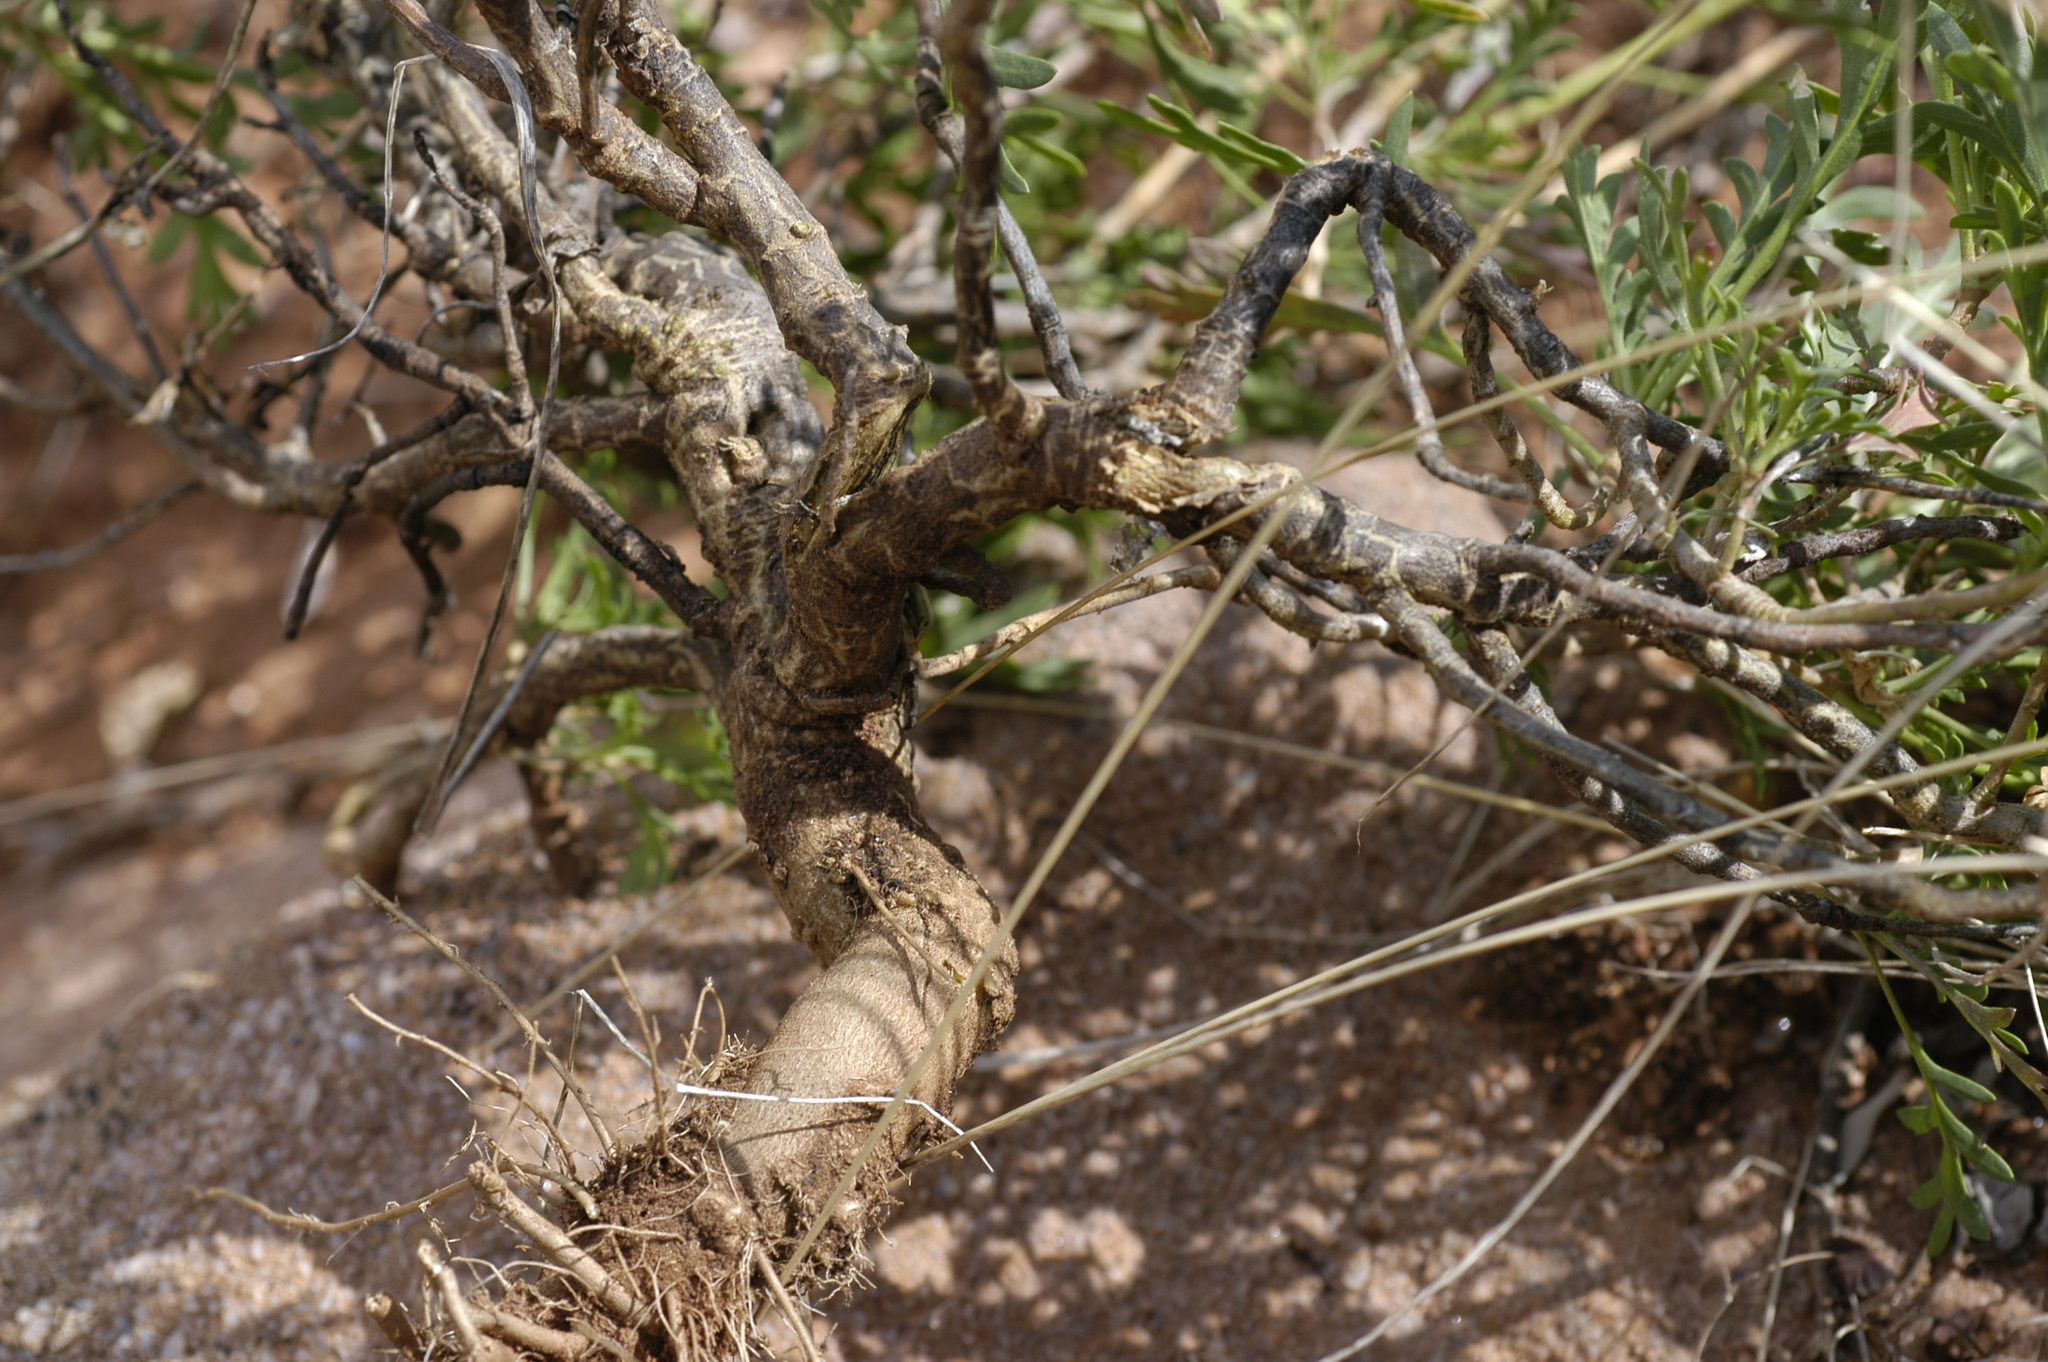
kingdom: Plantae
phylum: Tracheophyta
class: Magnoliopsida
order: Brassicales
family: Brassicaceae
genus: Lepidium
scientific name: Lepidium huberi
